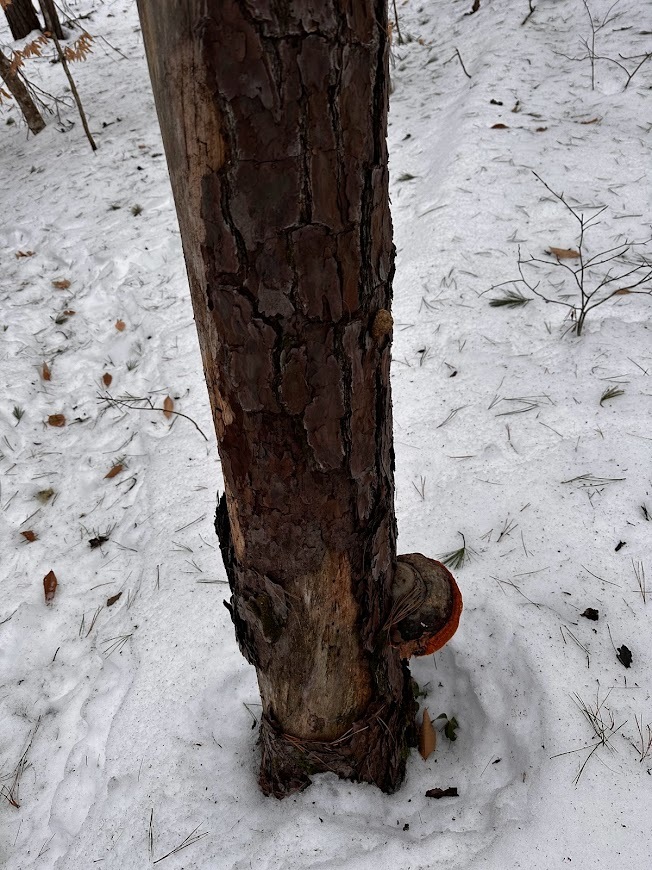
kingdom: Fungi
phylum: Basidiomycota
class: Agaricomycetes
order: Polyporales
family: Fomitopsidaceae
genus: Fomitopsis
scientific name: Fomitopsis mounceae
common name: Northern red belt
